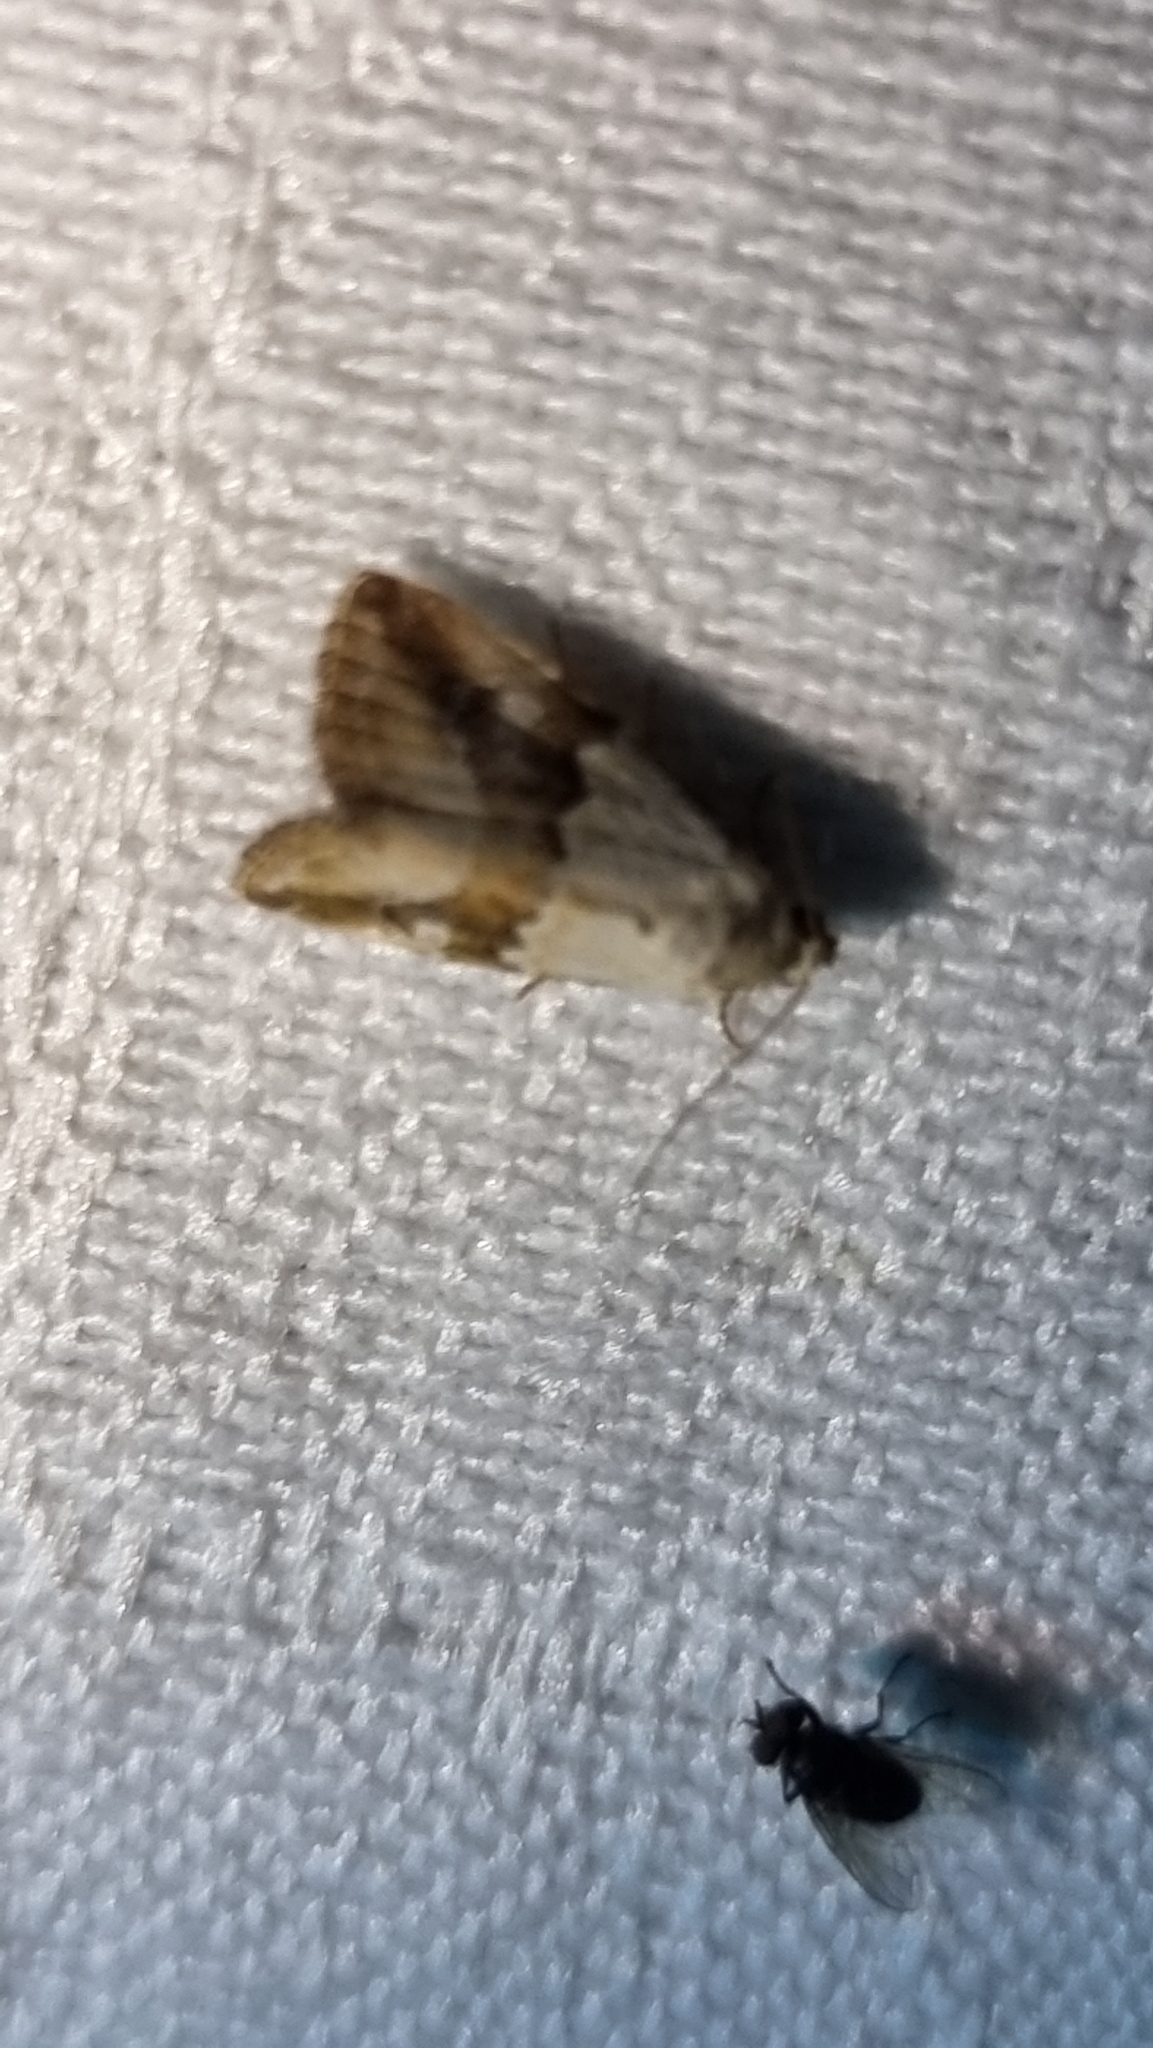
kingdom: Animalia
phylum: Arthropoda
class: Insecta
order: Lepidoptera
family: Noctuidae
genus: Maliattha
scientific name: Maliattha amorpha
